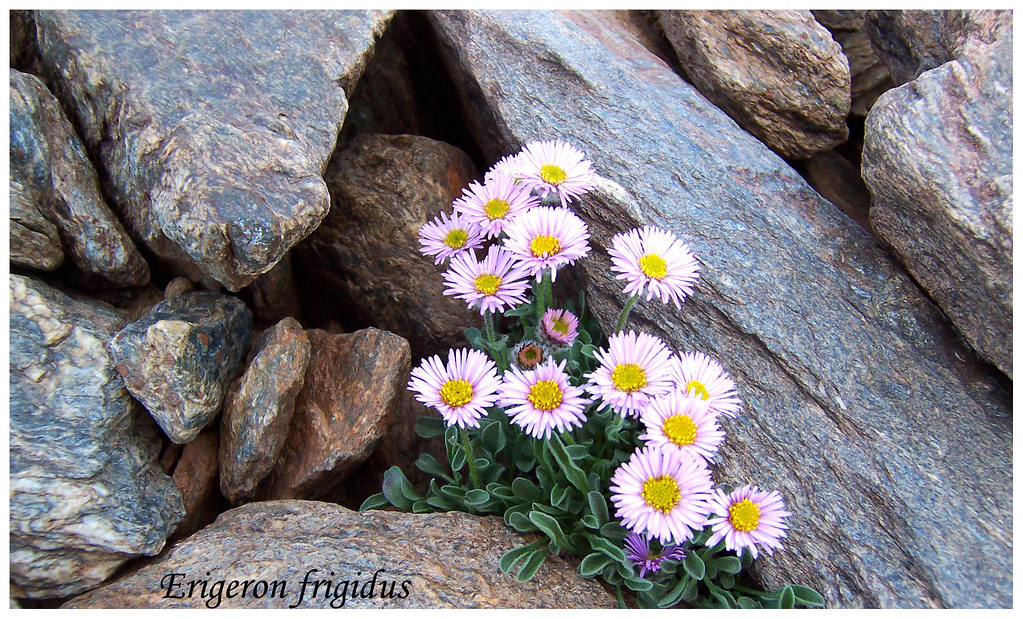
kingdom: Plantae
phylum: Tracheophyta
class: Magnoliopsida
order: Asterales
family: Asteraceae
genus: Erigeron
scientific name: Erigeron frigidus
